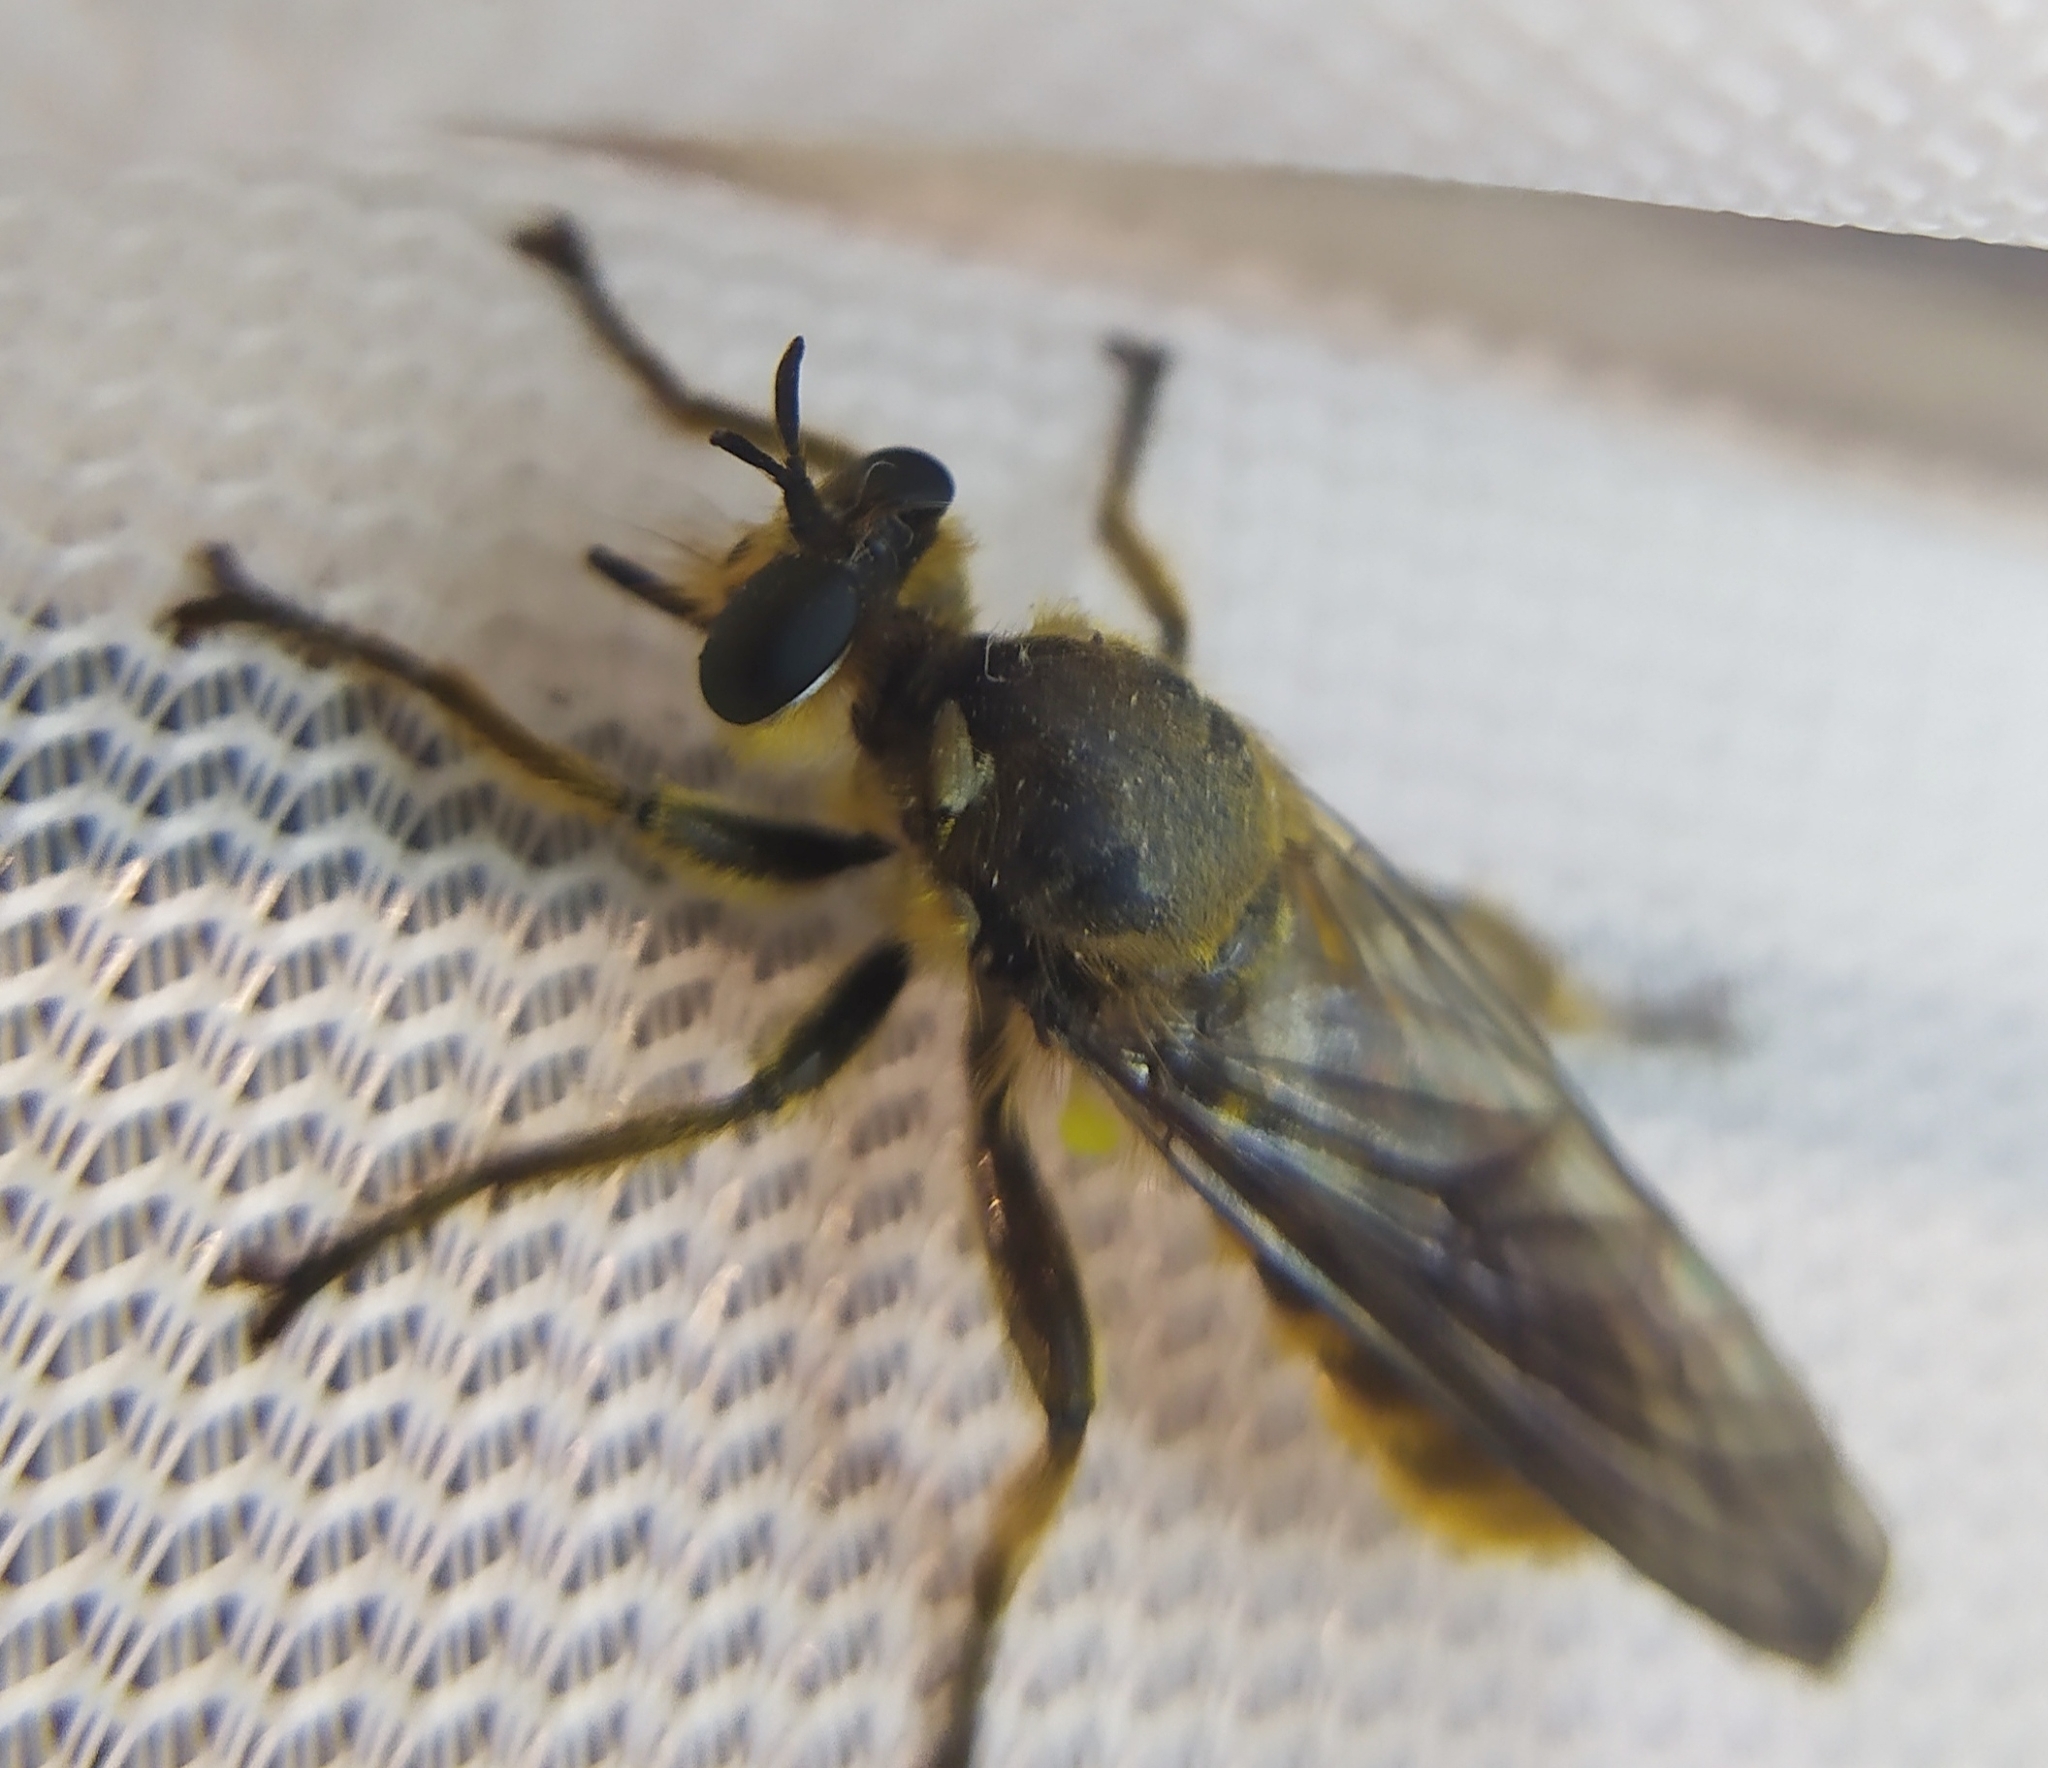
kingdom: Animalia
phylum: Arthropoda
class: Insecta
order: Diptera
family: Asilidae
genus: Lamyra
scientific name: Lamyra fimbriata
